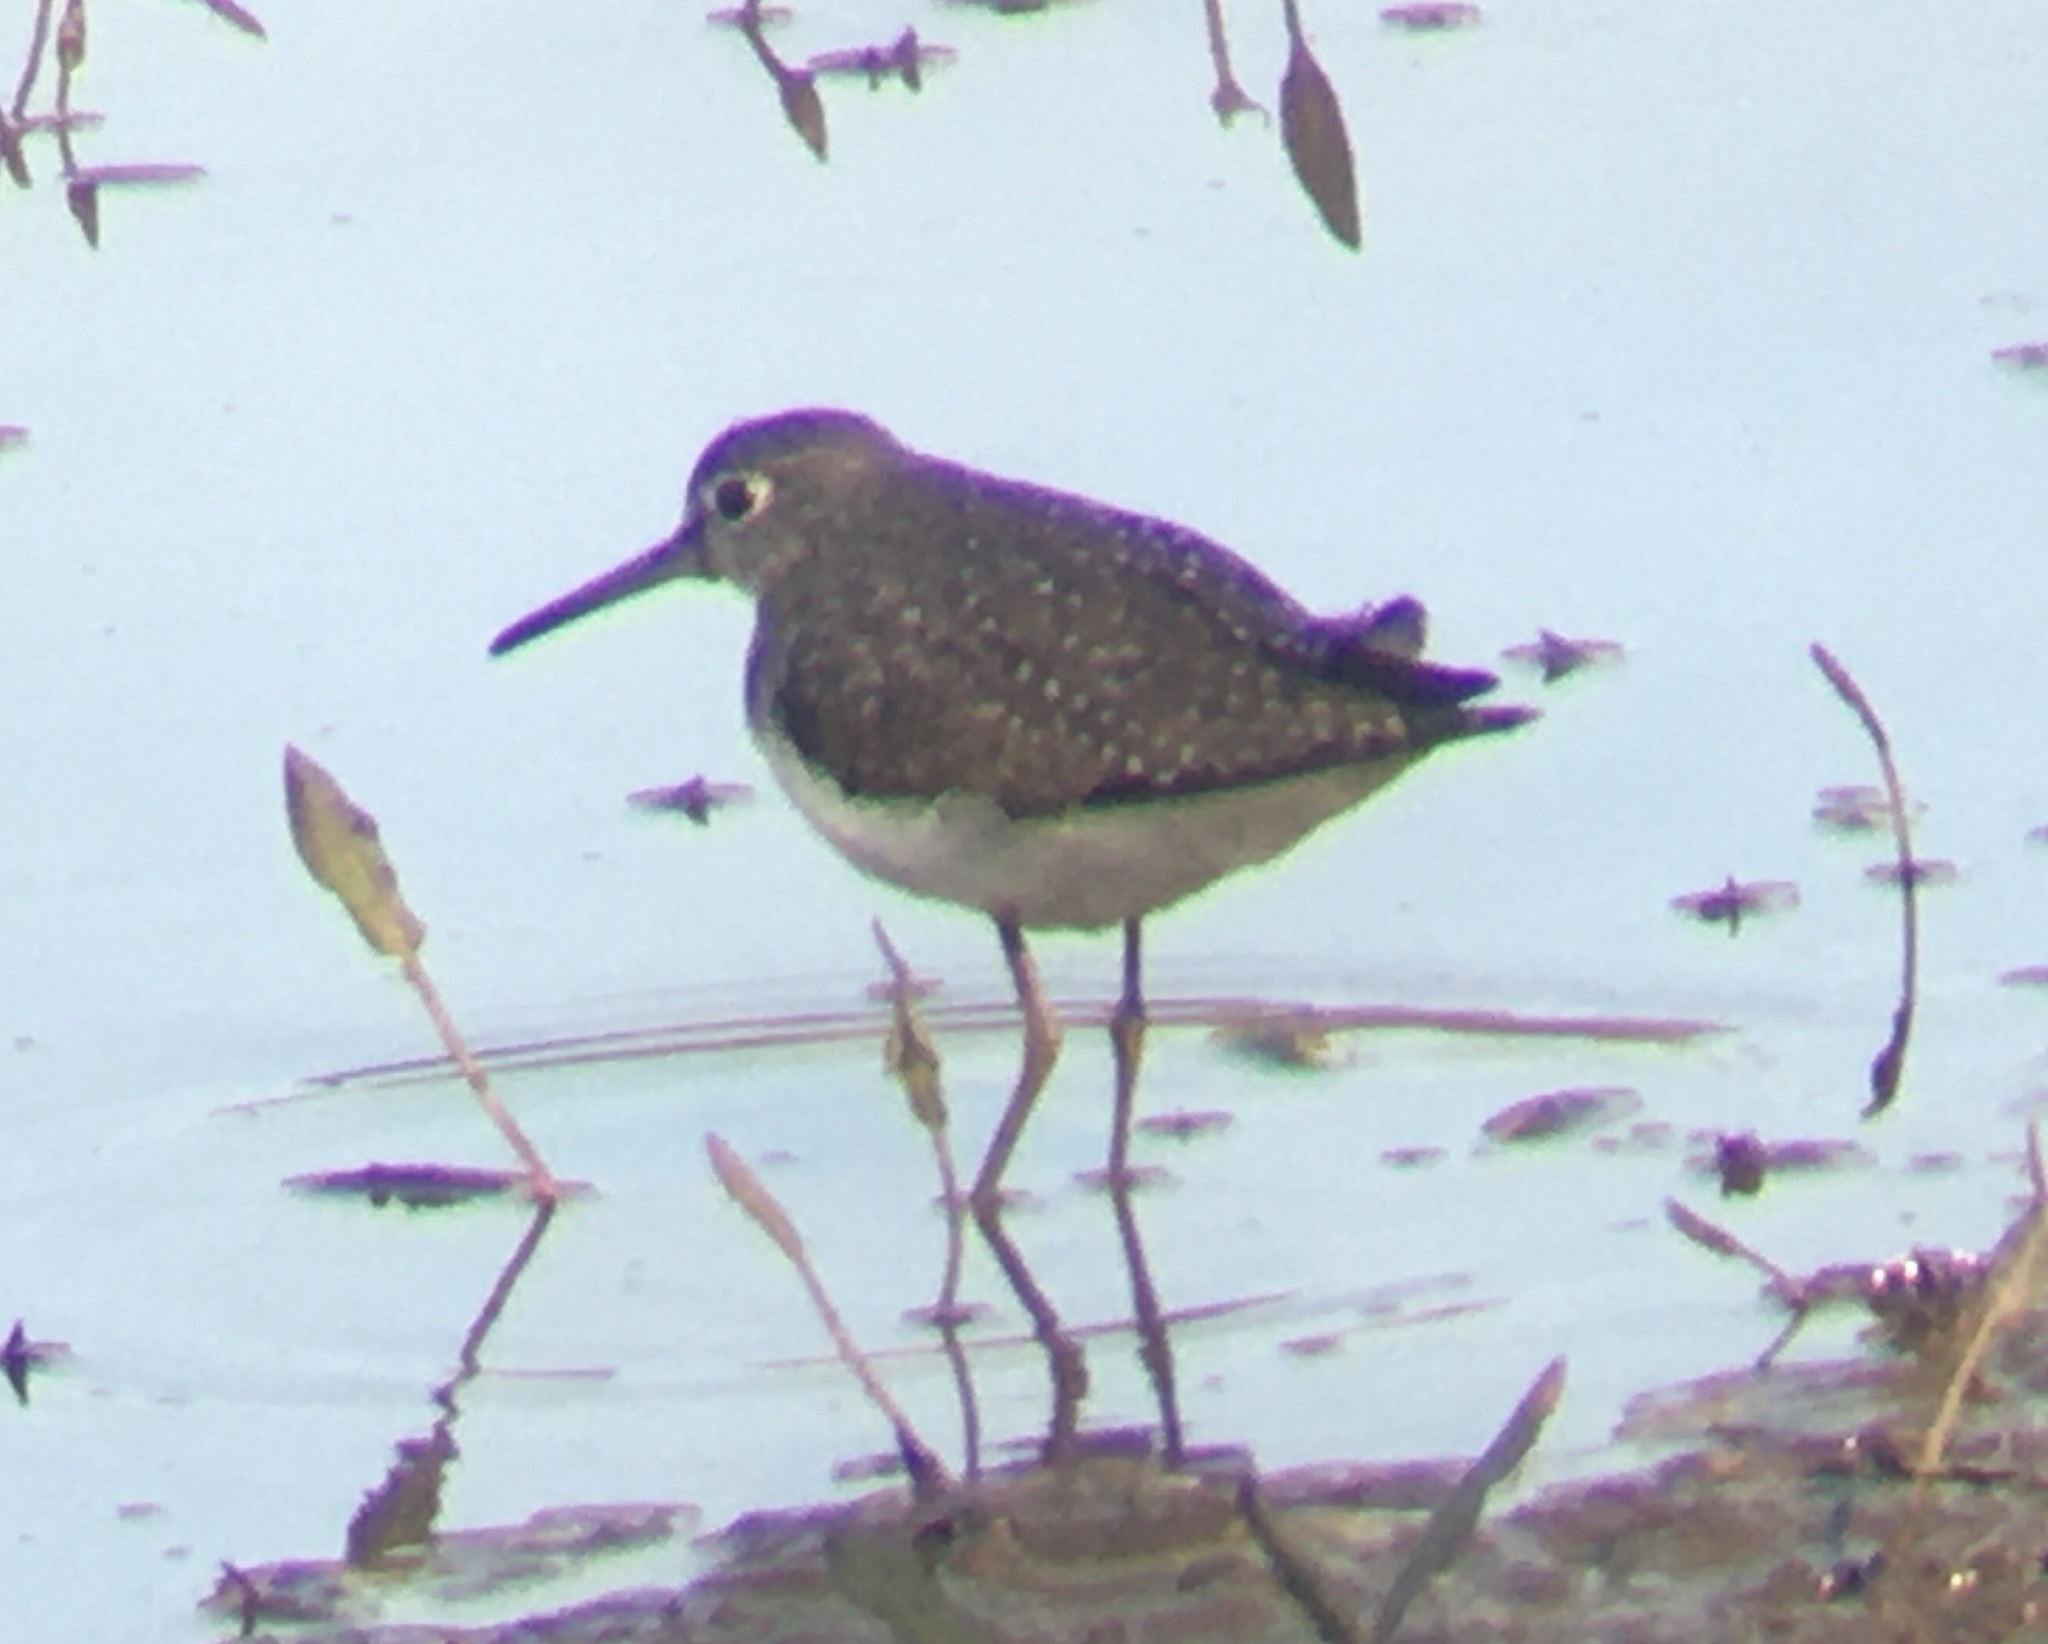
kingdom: Animalia
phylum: Chordata
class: Aves
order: Charadriiformes
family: Scolopacidae
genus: Tringa
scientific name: Tringa solitaria
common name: Solitary sandpiper
